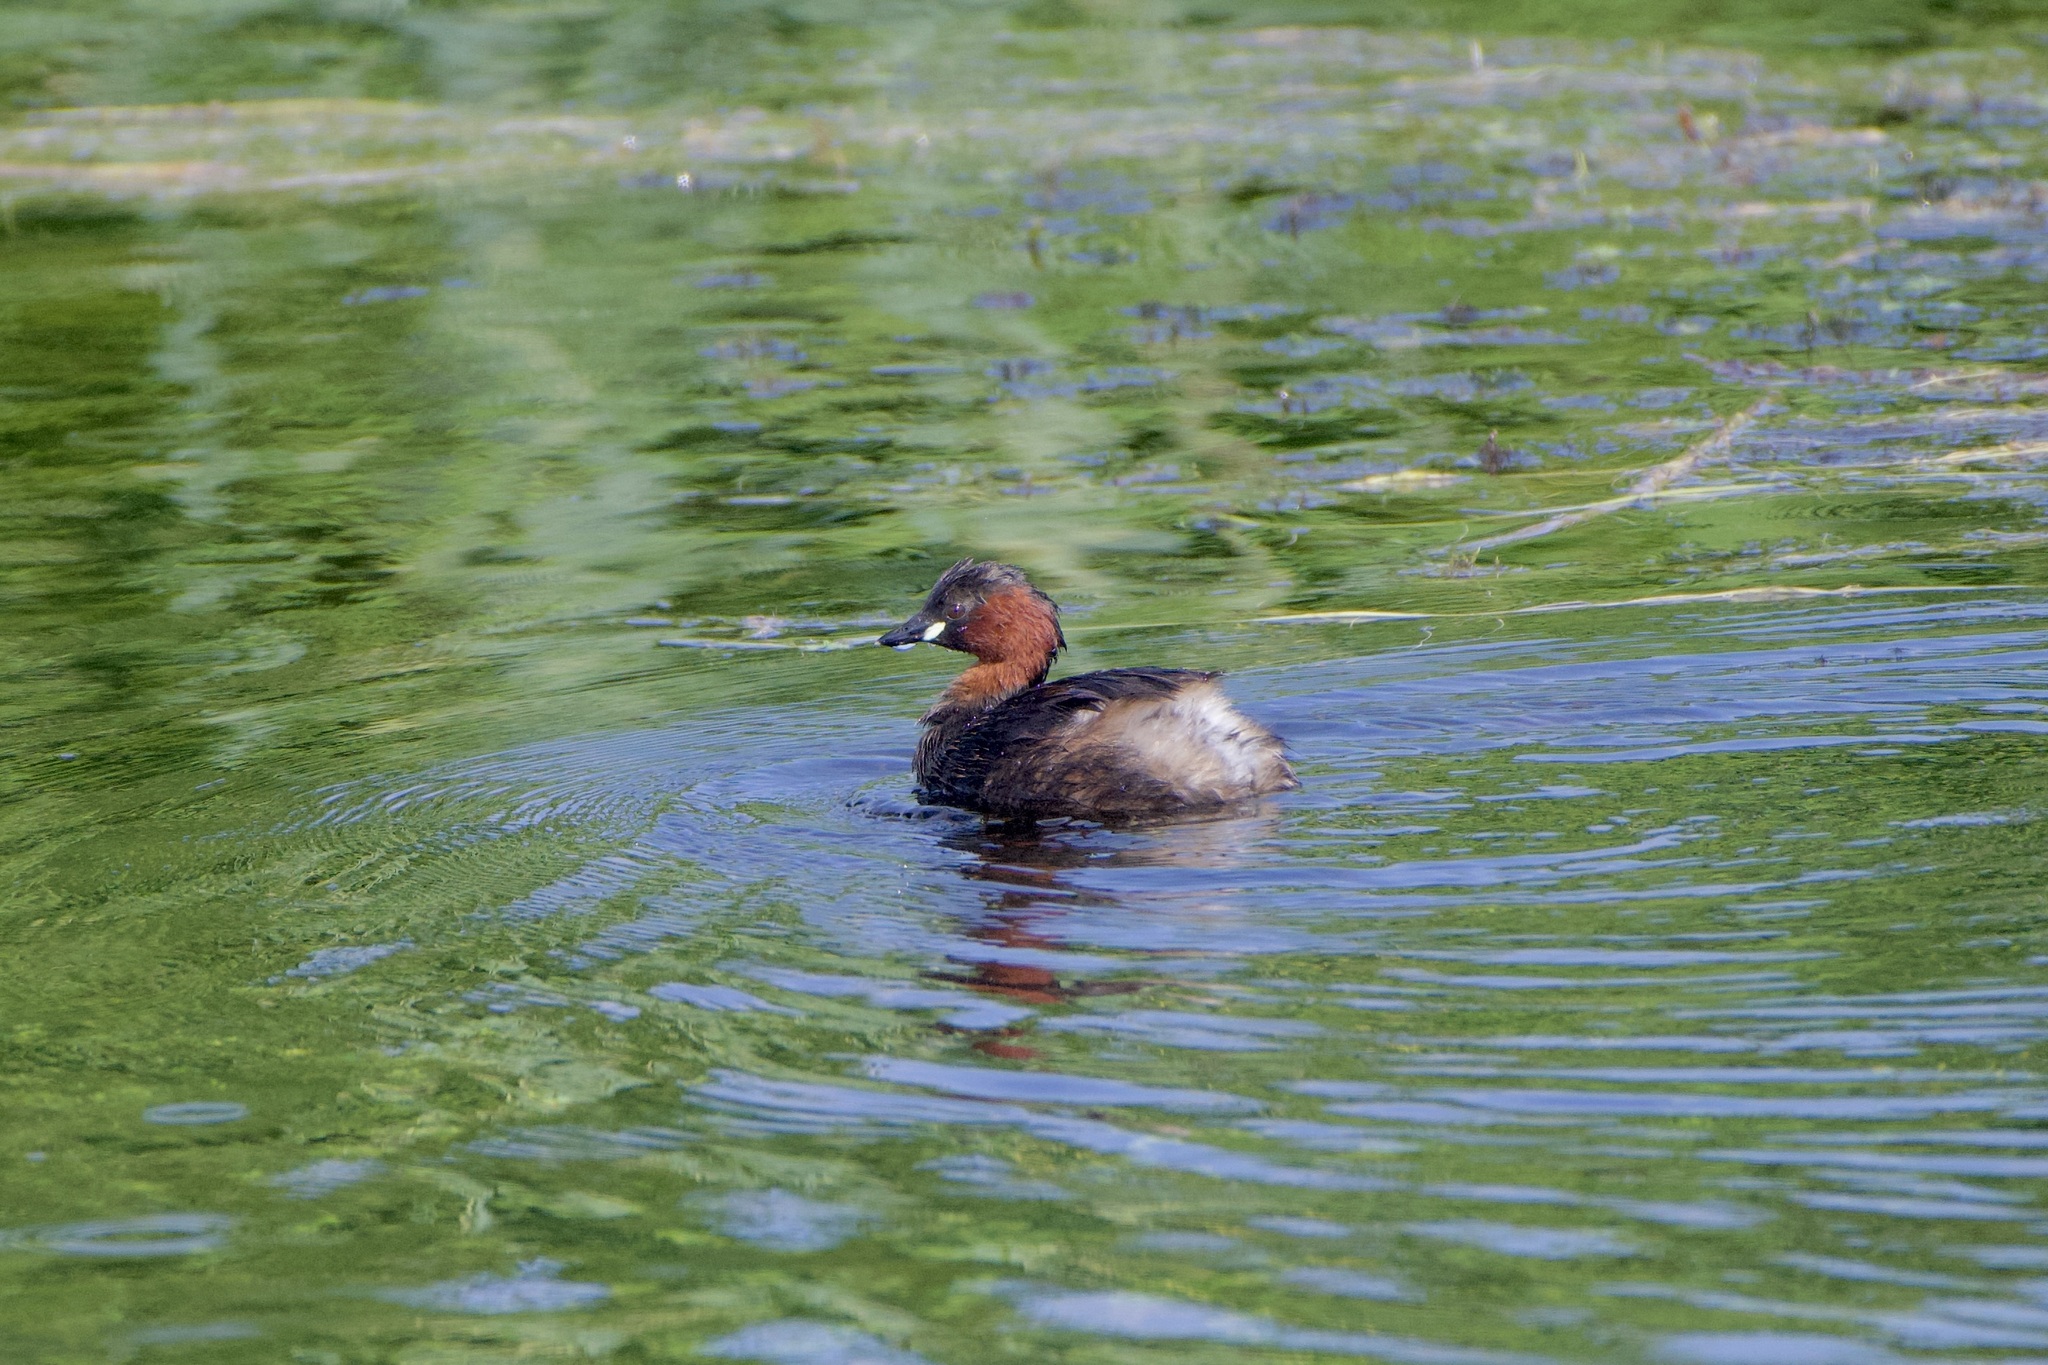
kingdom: Animalia
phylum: Chordata
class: Aves
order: Podicipediformes
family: Podicipedidae
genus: Tachybaptus
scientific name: Tachybaptus ruficollis
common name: Little grebe
